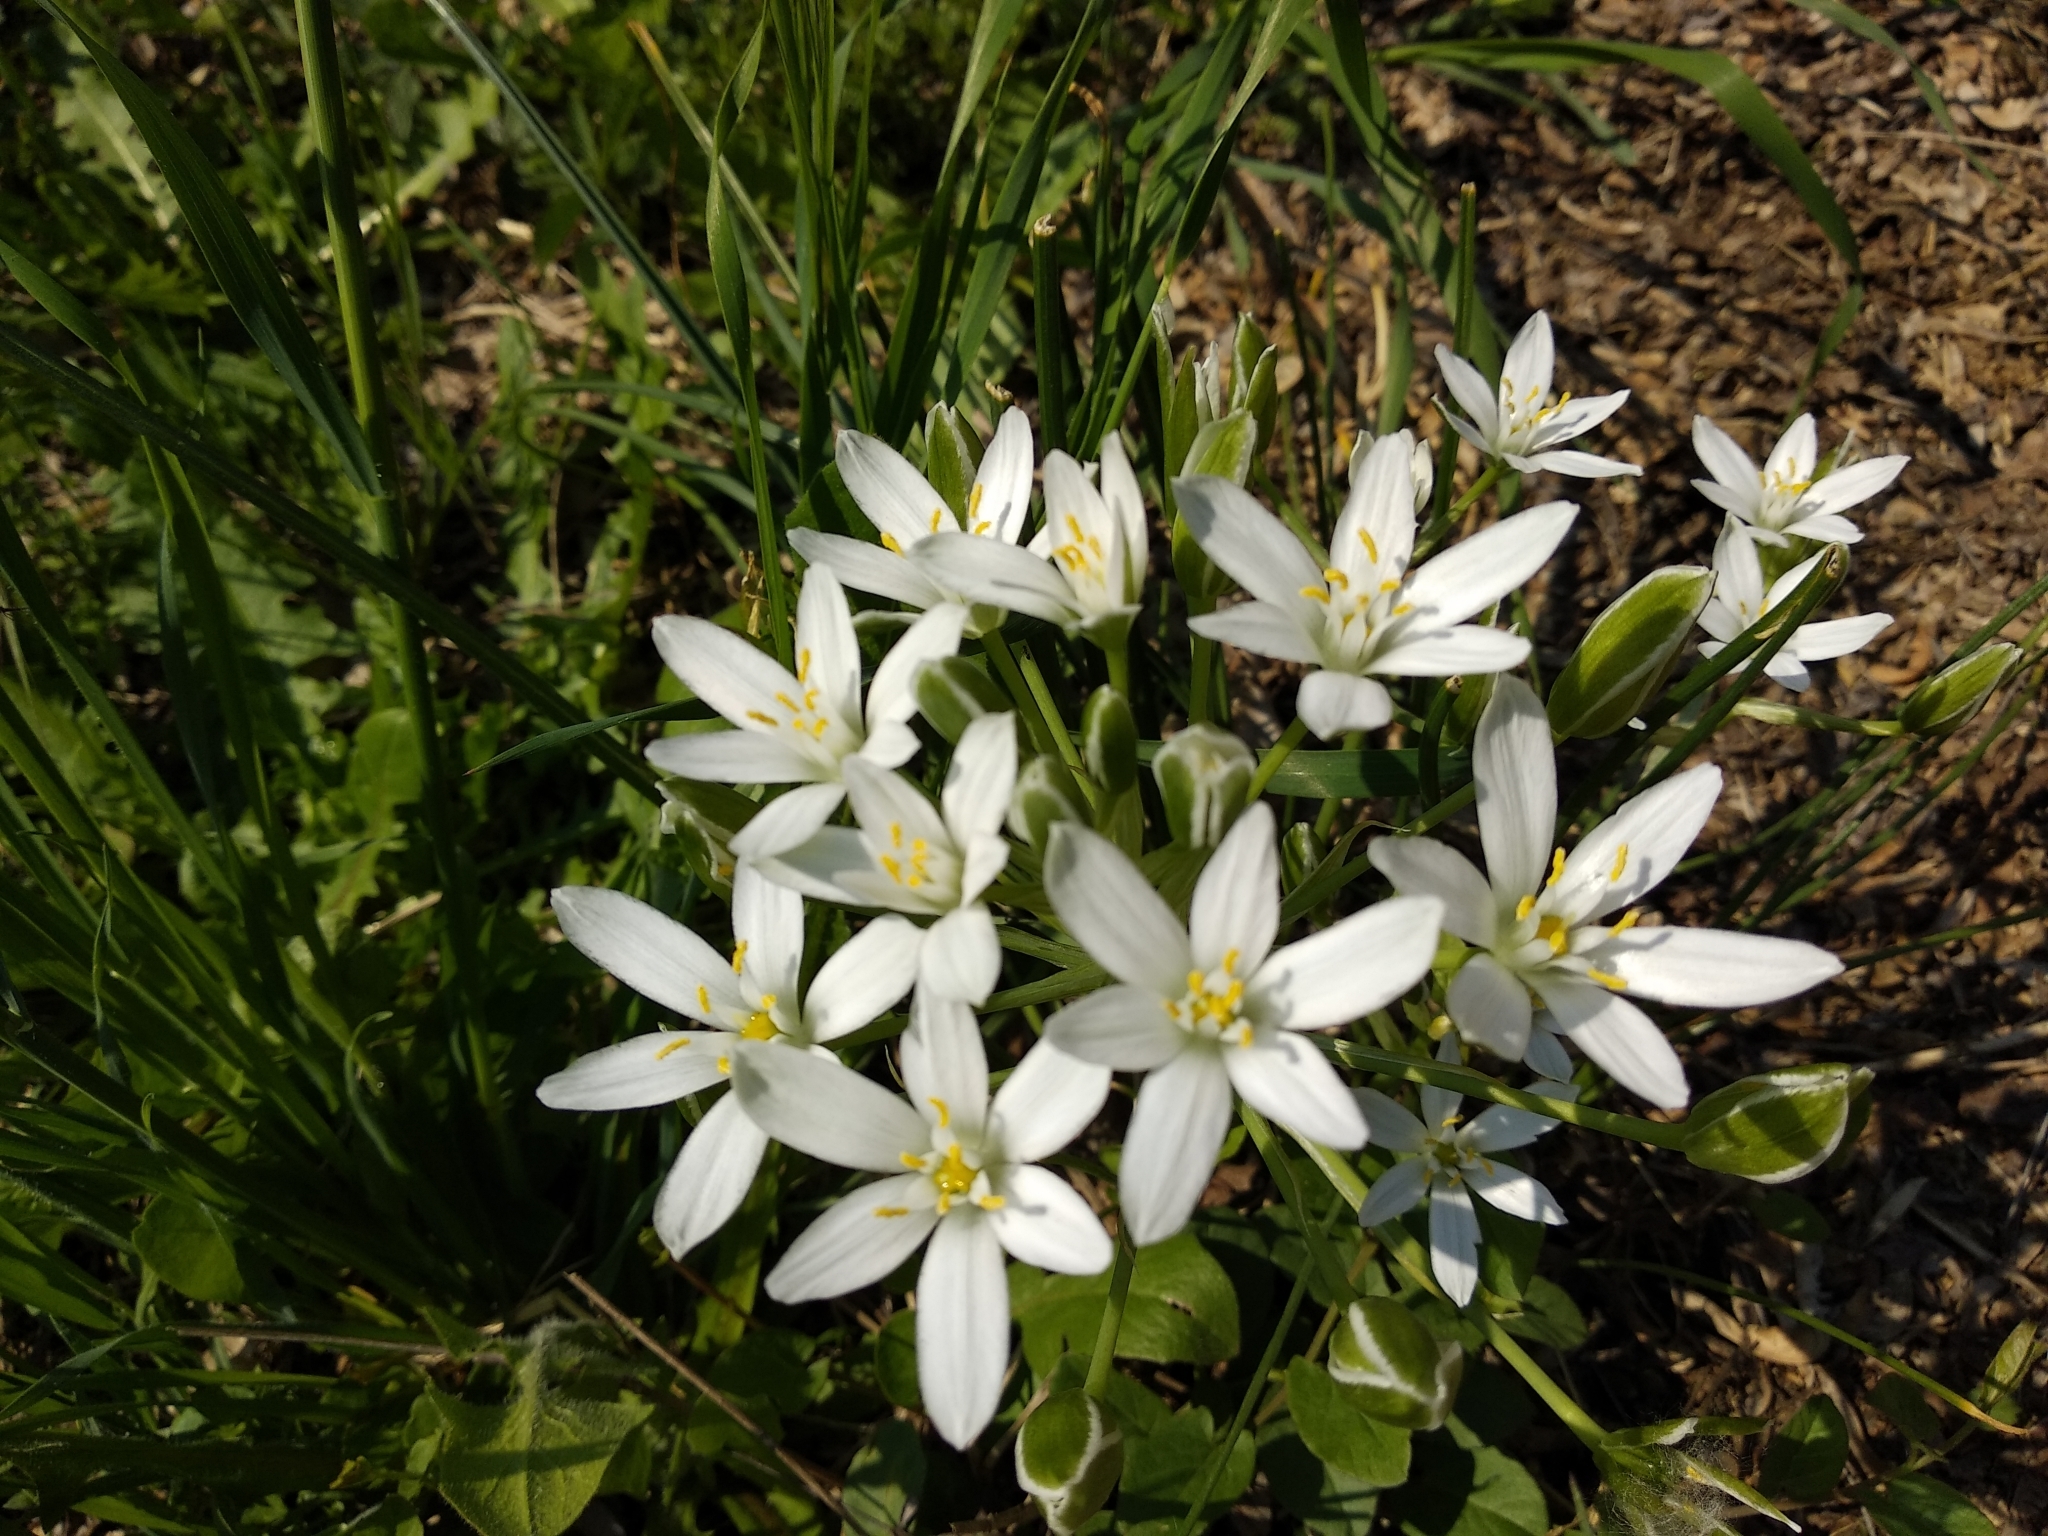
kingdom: Plantae
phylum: Tracheophyta
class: Liliopsida
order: Asparagales
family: Asparagaceae
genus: Ornithogalum
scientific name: Ornithogalum umbellatum
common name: Garden star-of-bethlehem
